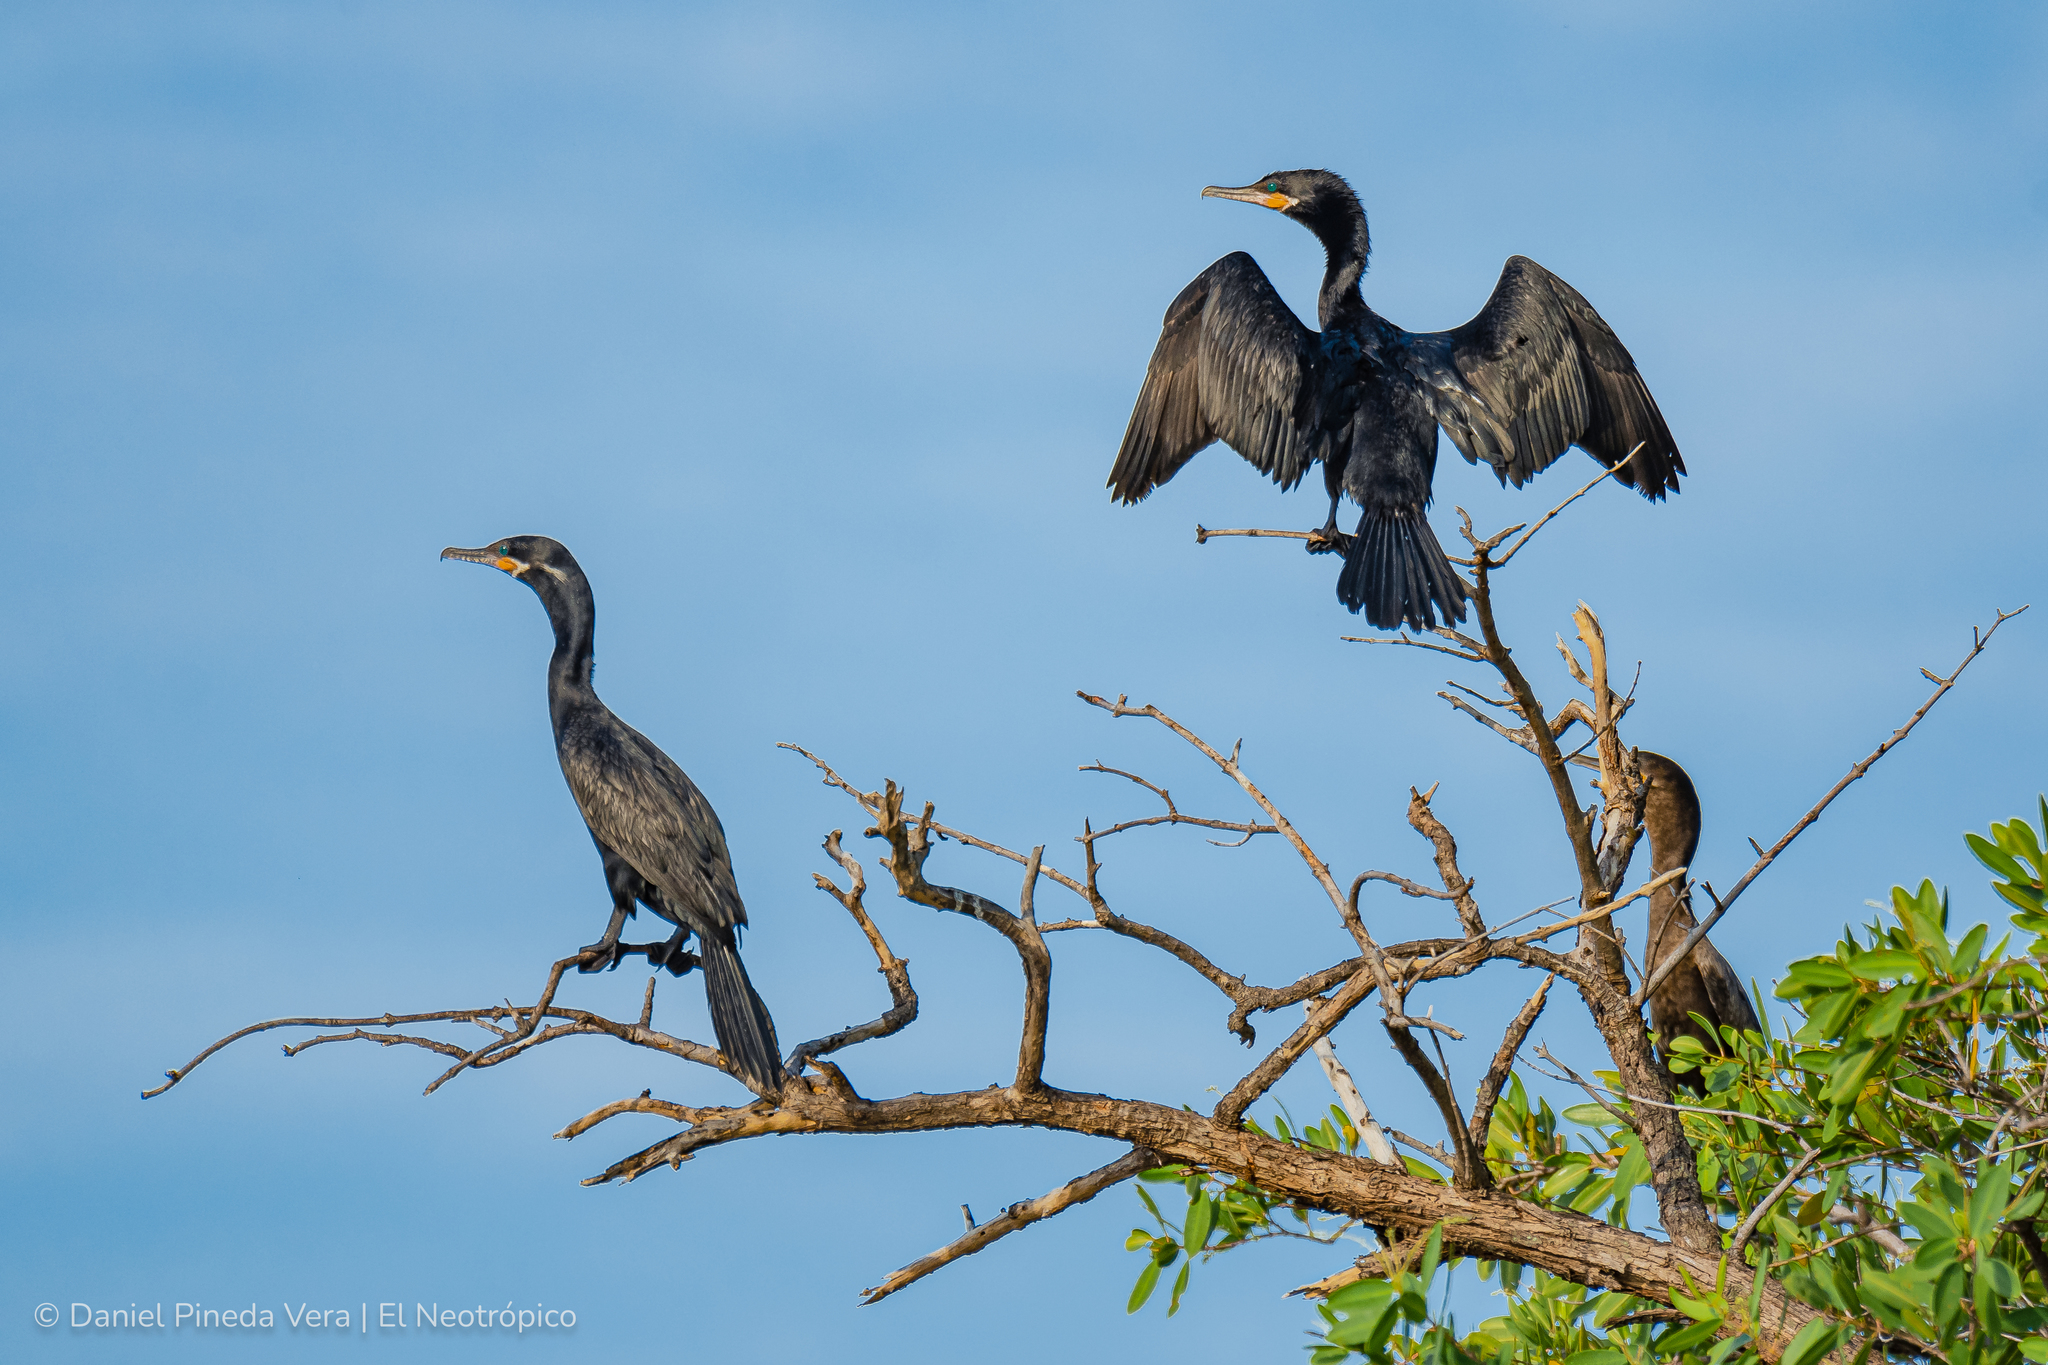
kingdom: Animalia
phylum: Chordata
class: Aves
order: Suliformes
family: Phalacrocoracidae
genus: Phalacrocorax
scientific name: Phalacrocorax brasilianus
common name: Neotropic cormorant
